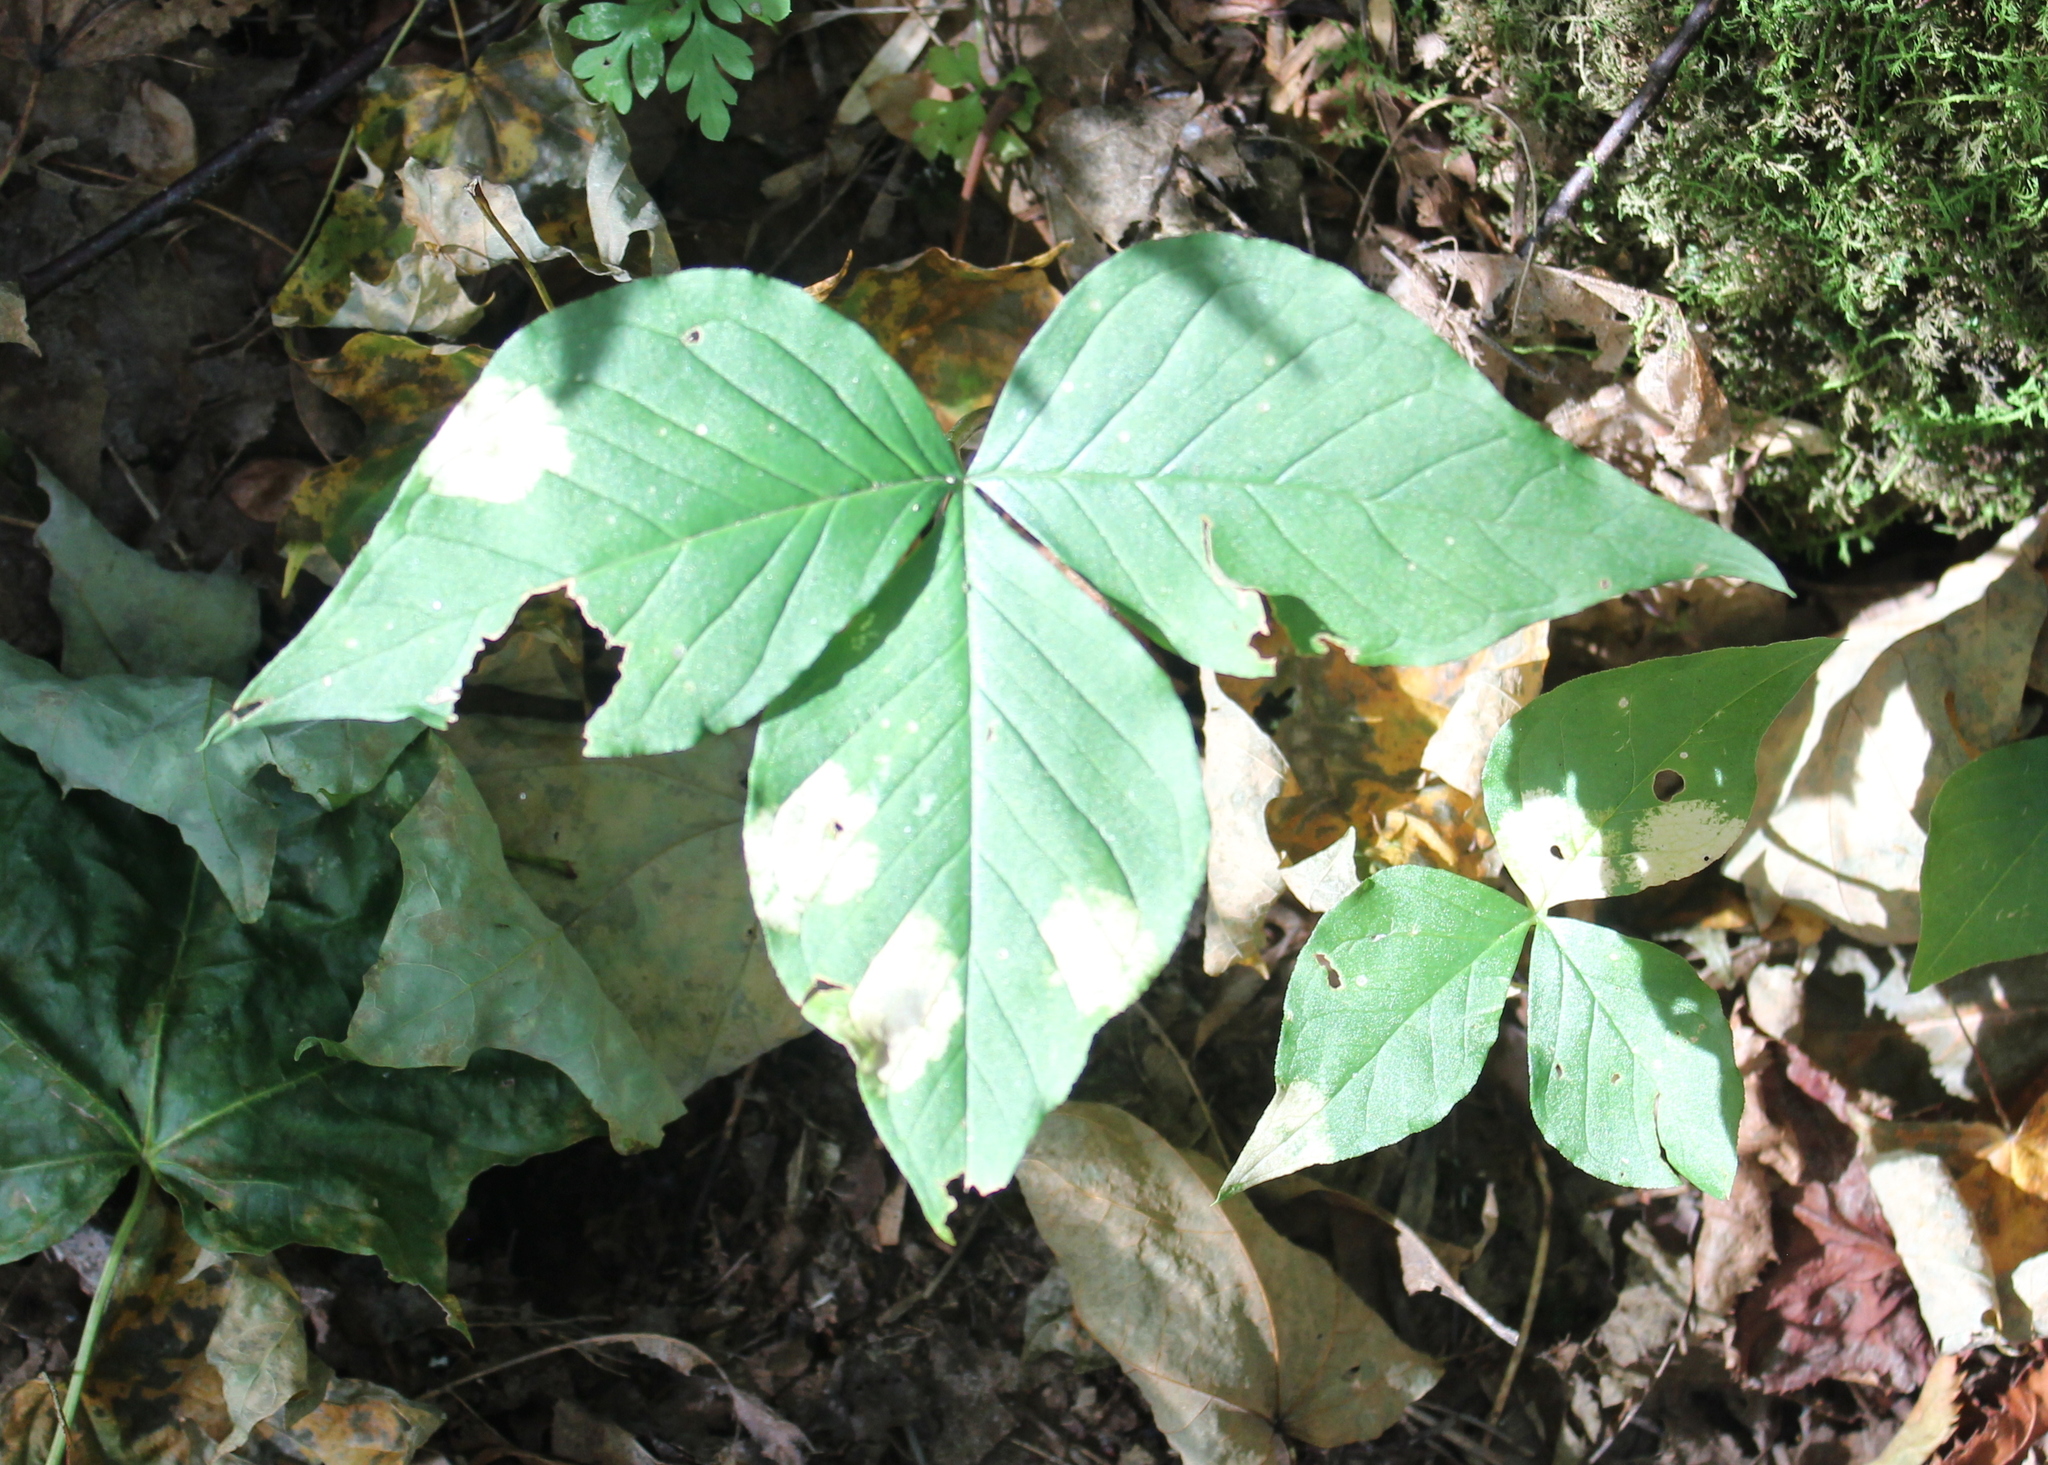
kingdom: Plantae
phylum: Tracheophyta
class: Liliopsida
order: Alismatales
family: Araceae
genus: Arisaema
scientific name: Arisaema triphyllum
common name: Jack-in-the-pulpit
